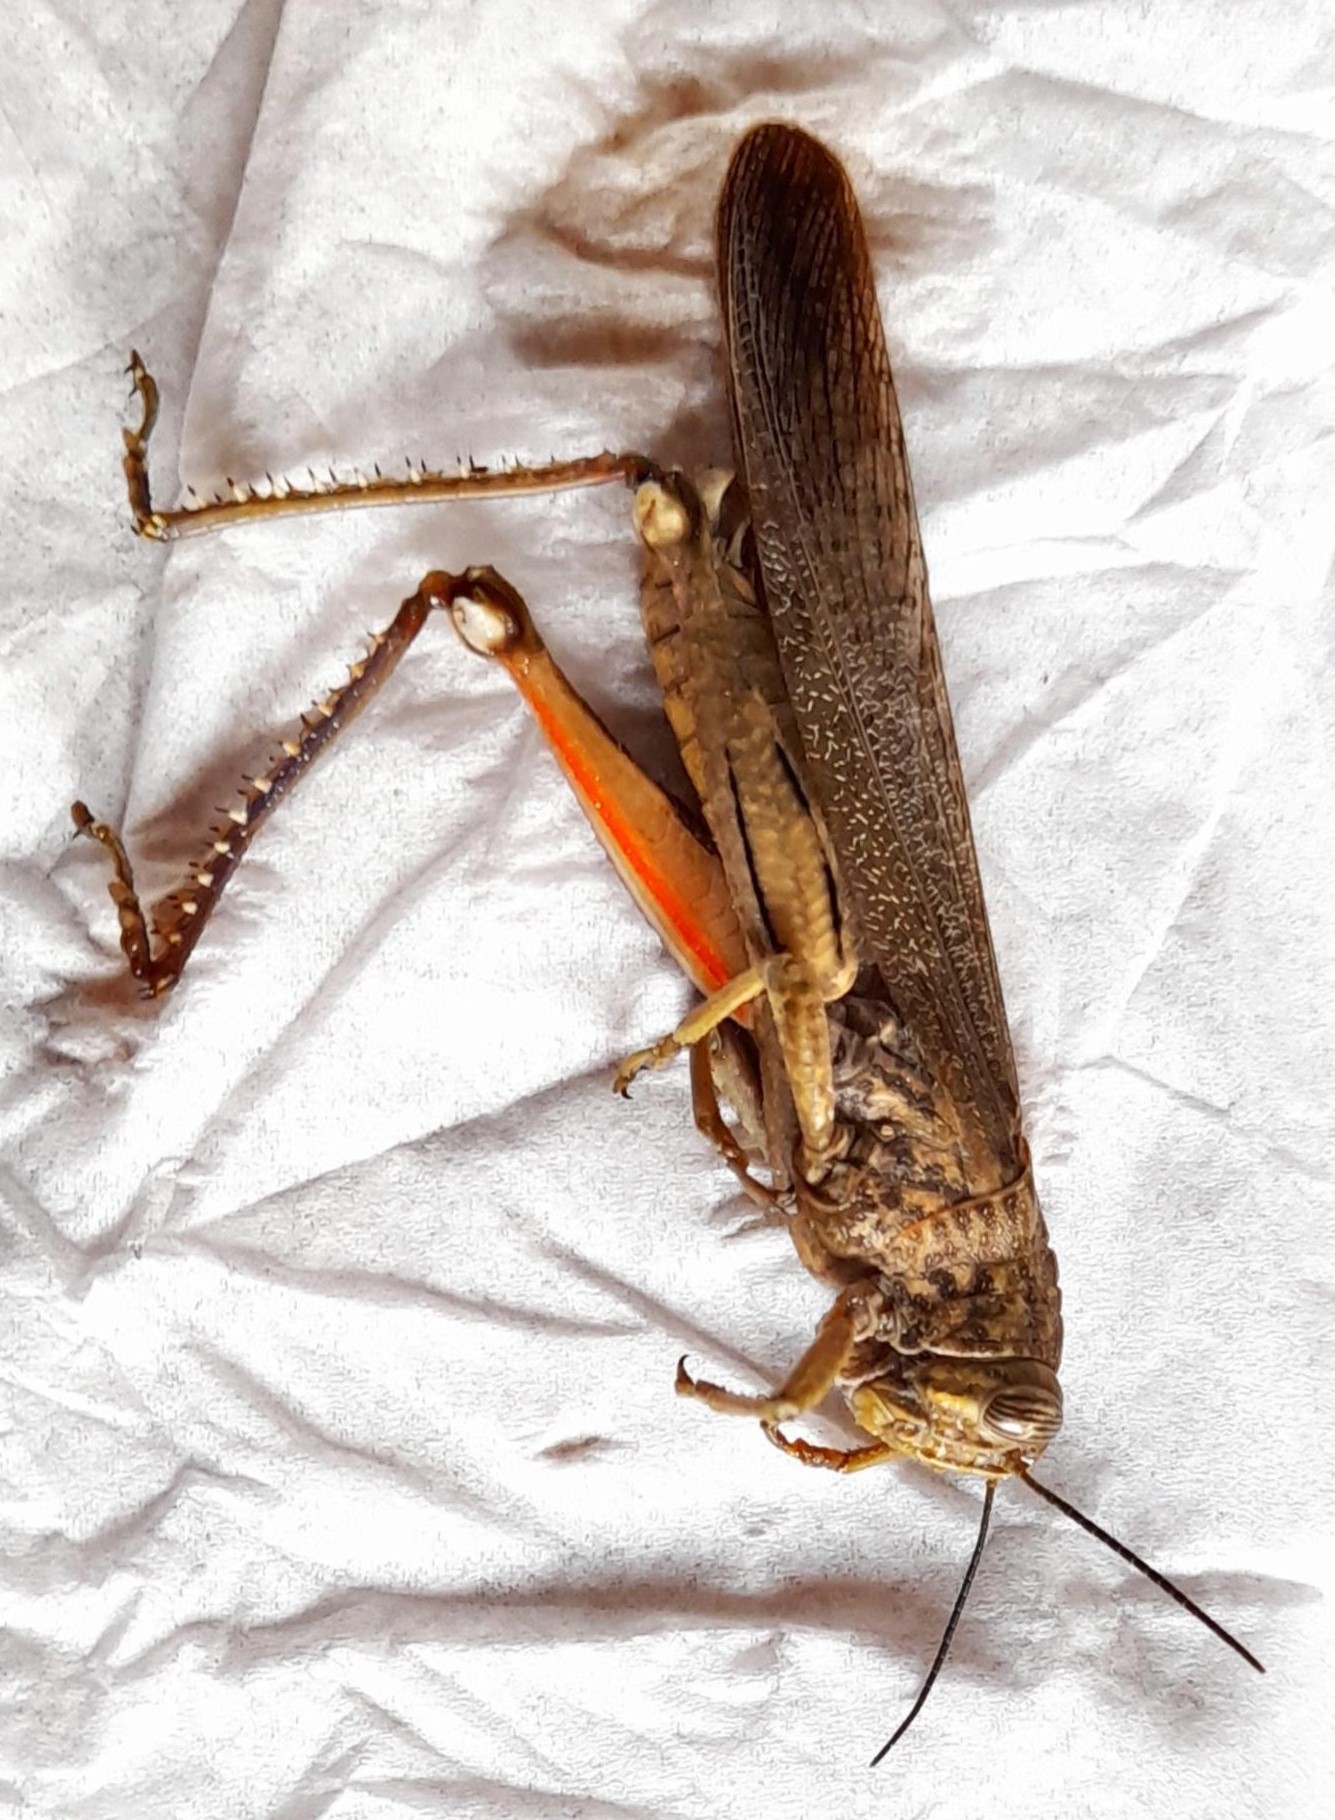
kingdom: Animalia
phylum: Arthropoda
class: Insecta
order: Orthoptera
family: Acrididae
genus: Anacridium
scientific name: Anacridium aegyptium
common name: Egyptian grasshopper
